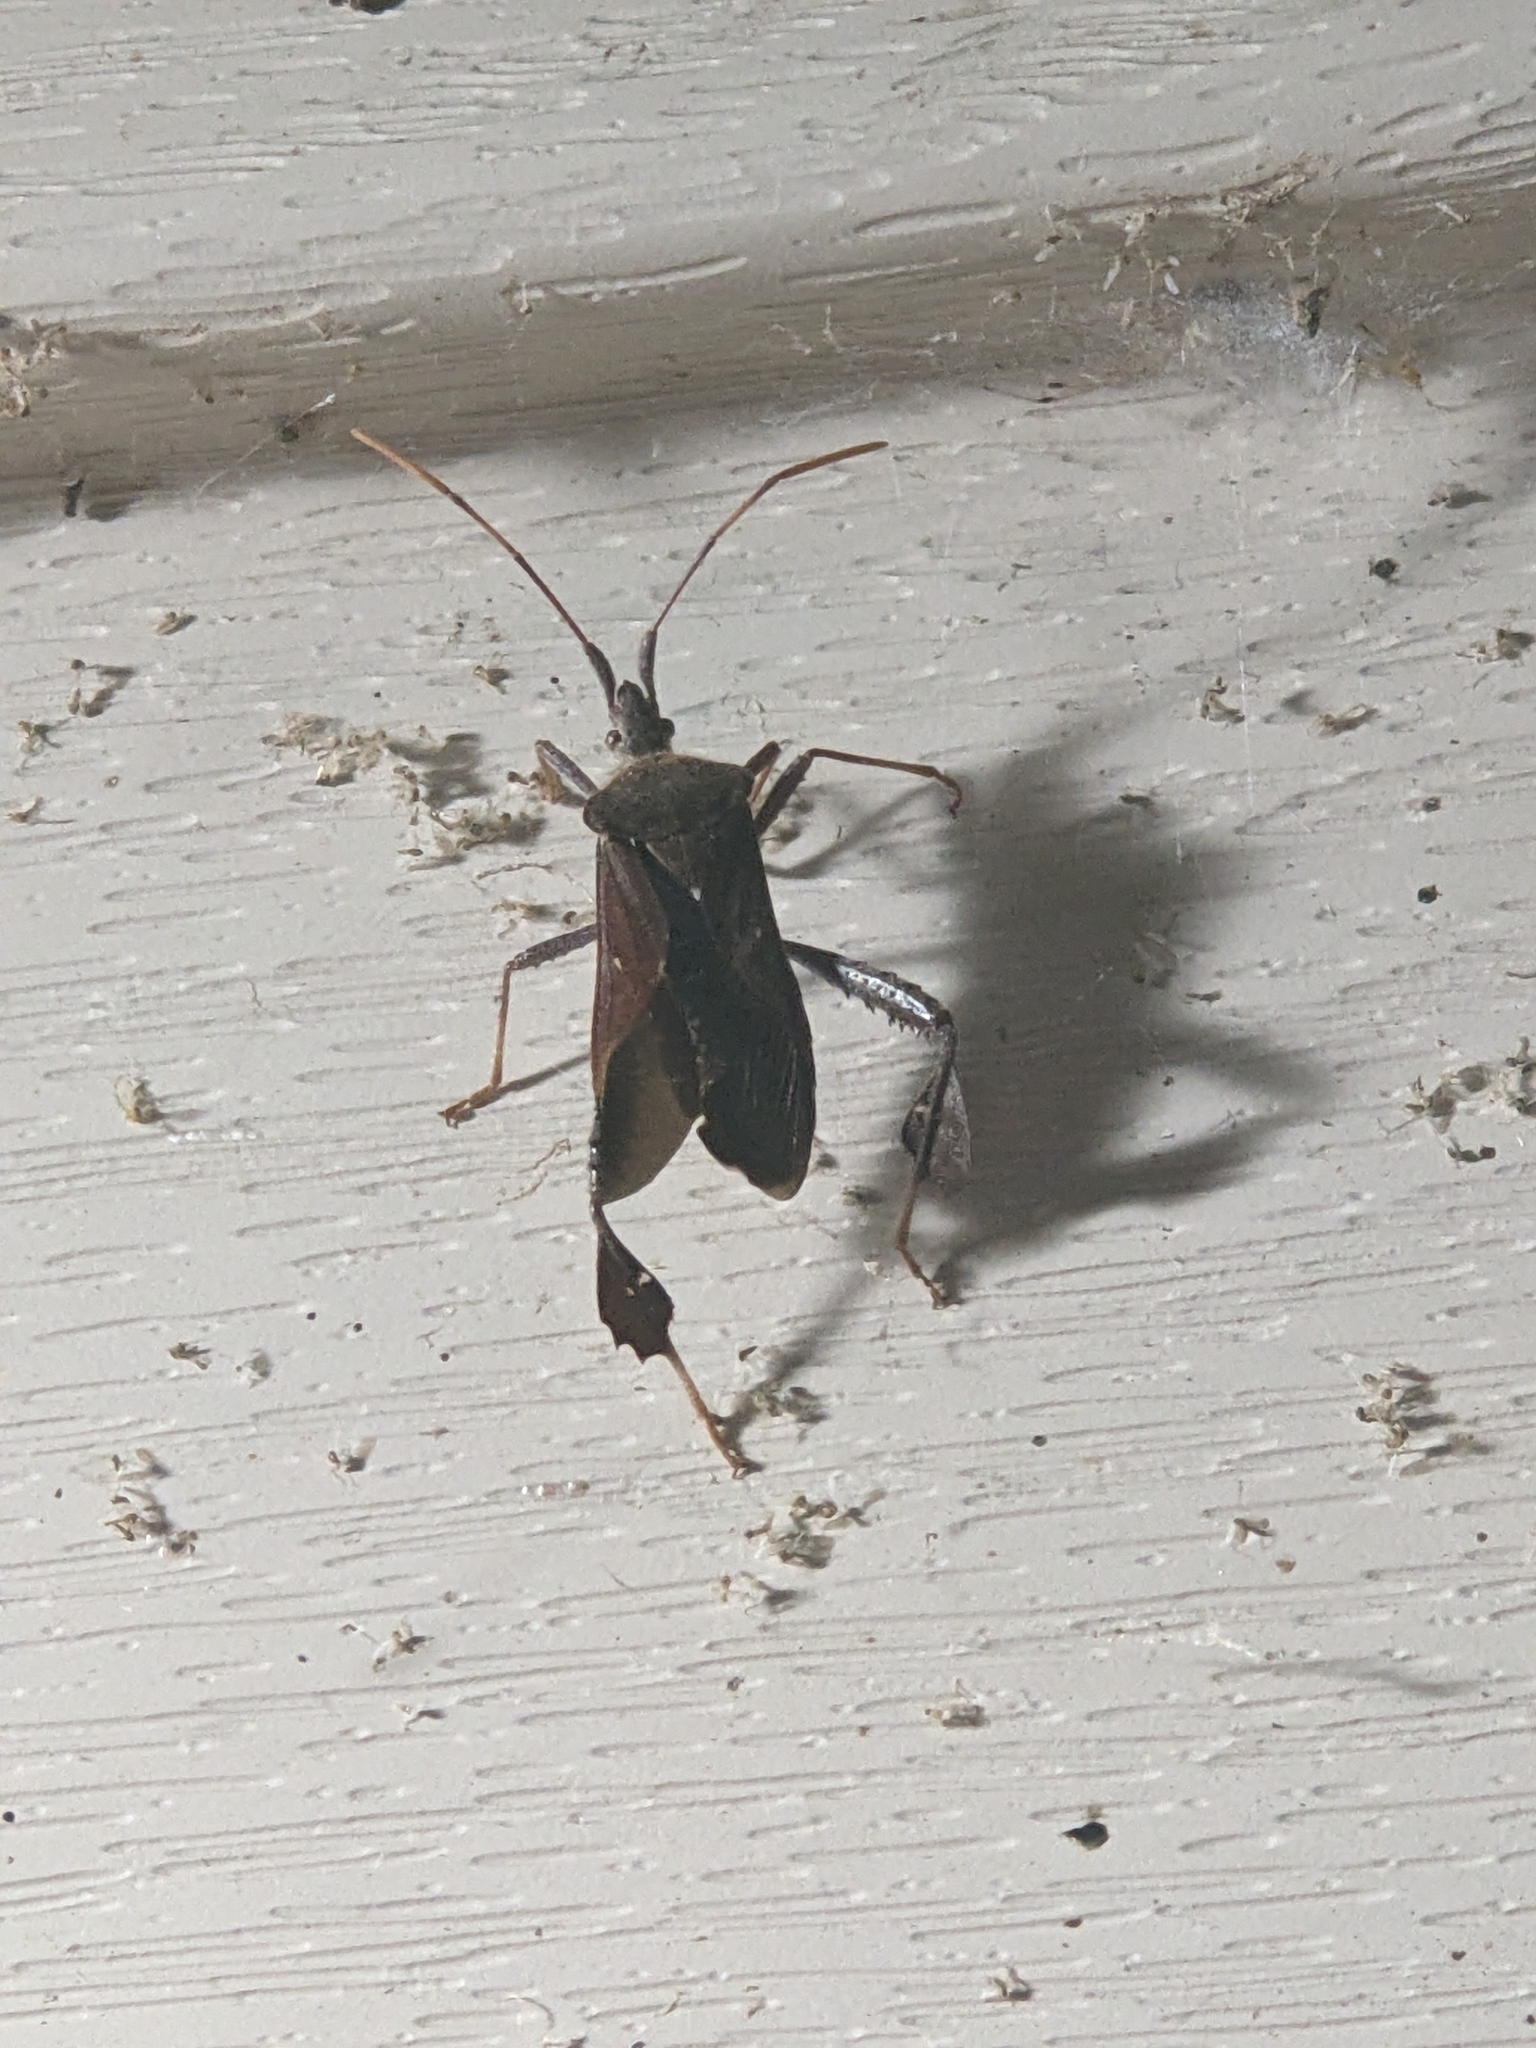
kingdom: Animalia
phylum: Arthropoda
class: Insecta
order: Hemiptera
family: Coreidae
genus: Leptoglossus
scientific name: Leptoglossus oppositus
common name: Northern leaf-footed bug
